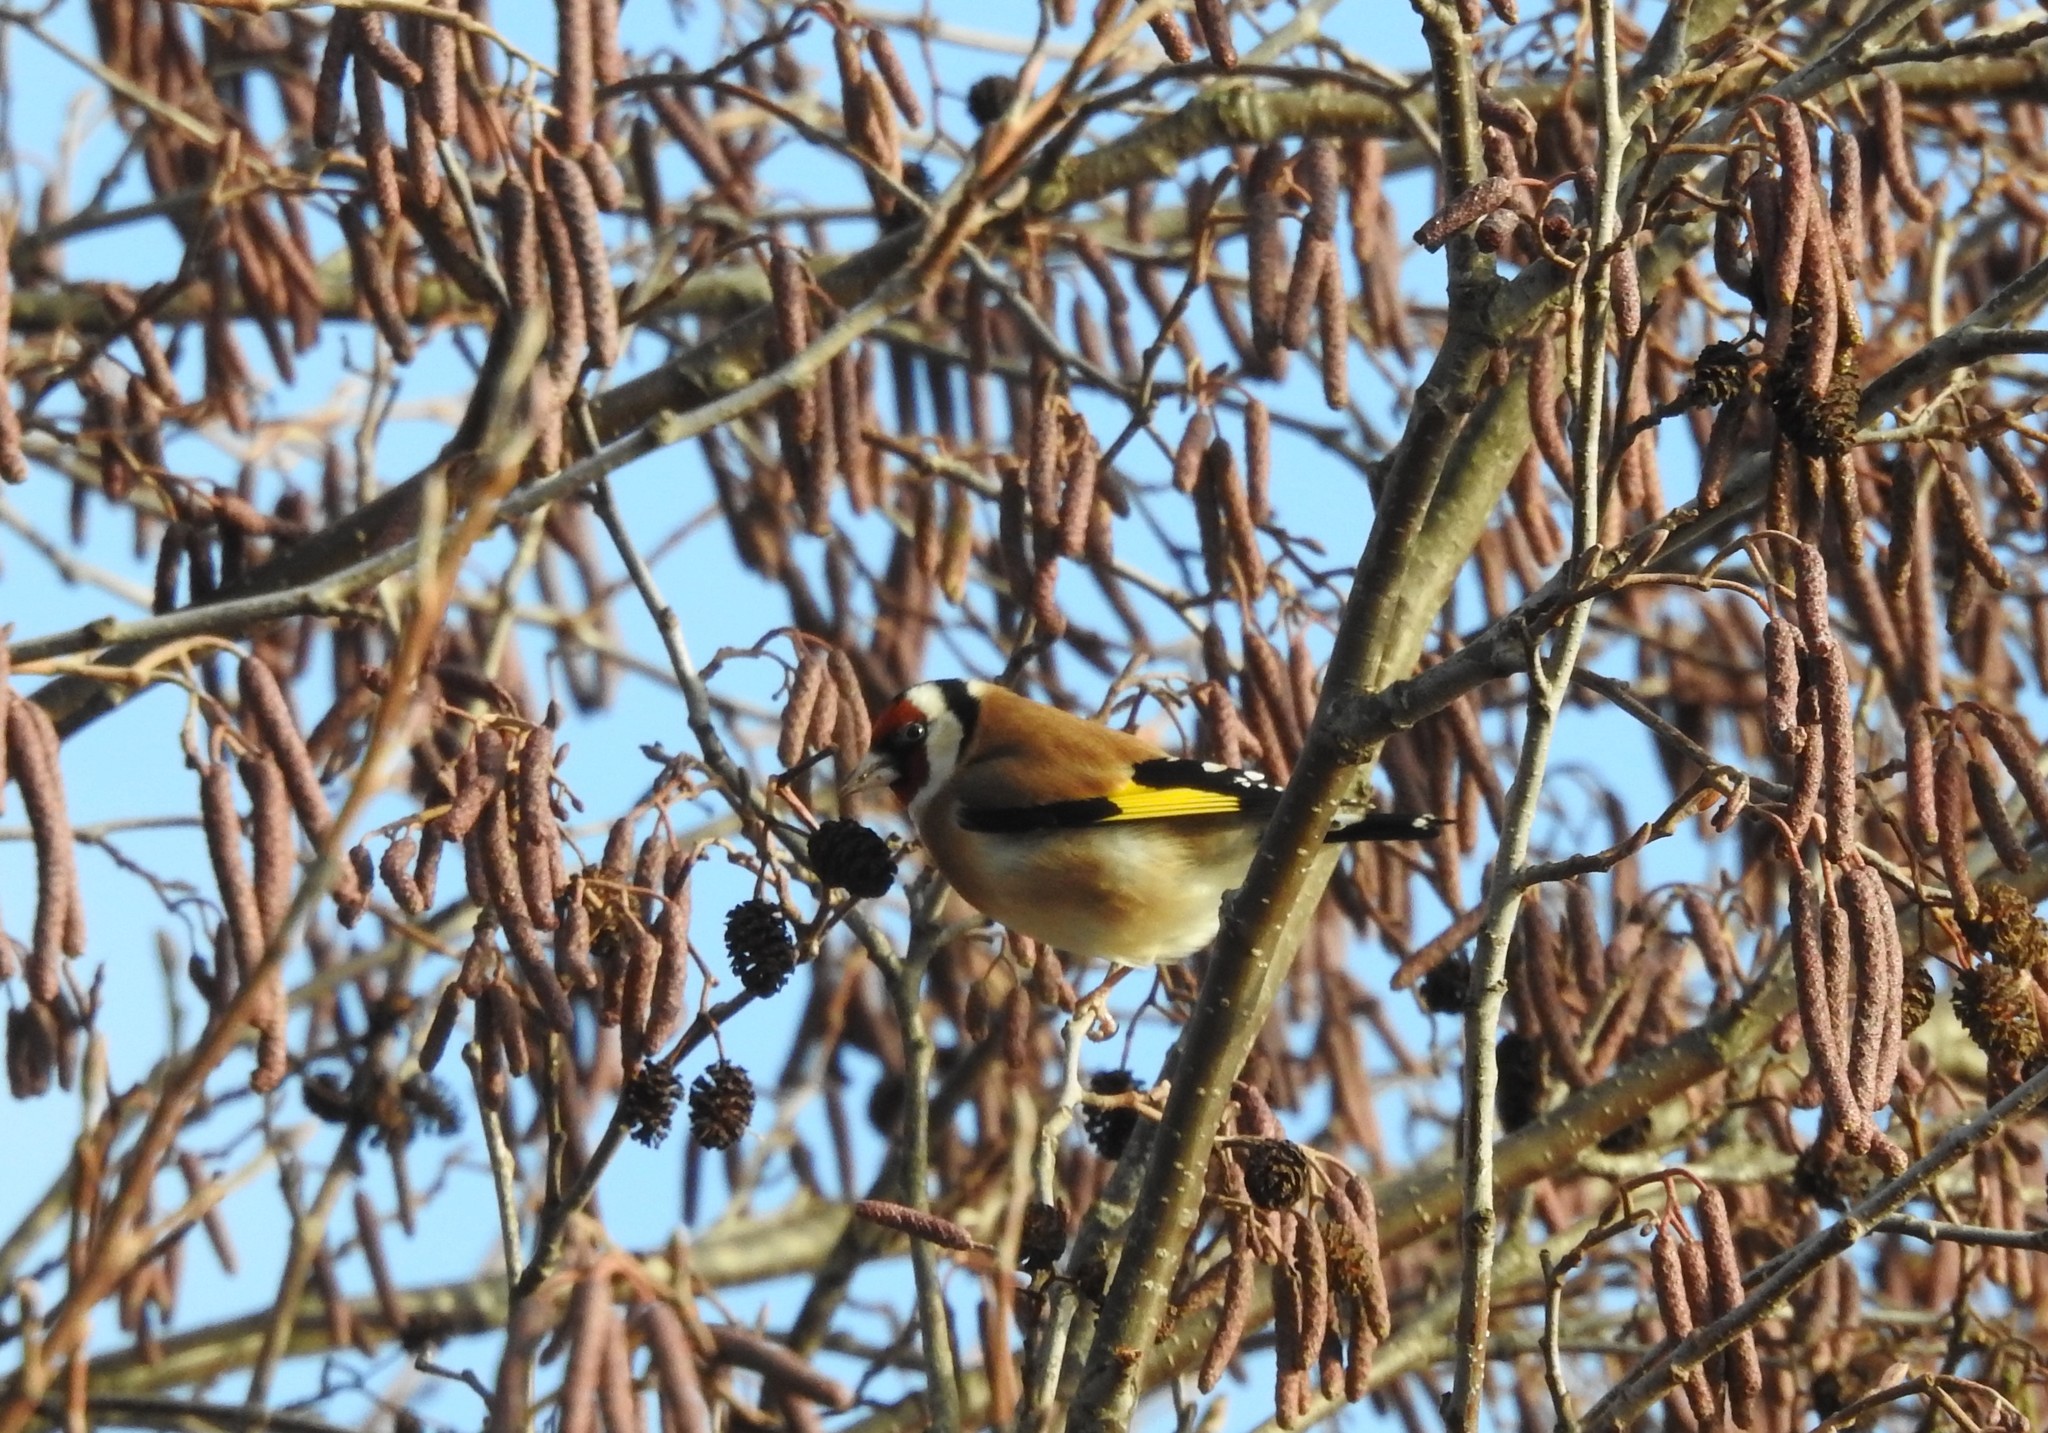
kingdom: Animalia
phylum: Chordata
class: Aves
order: Passeriformes
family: Fringillidae
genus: Carduelis
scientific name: Carduelis carduelis
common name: European goldfinch
